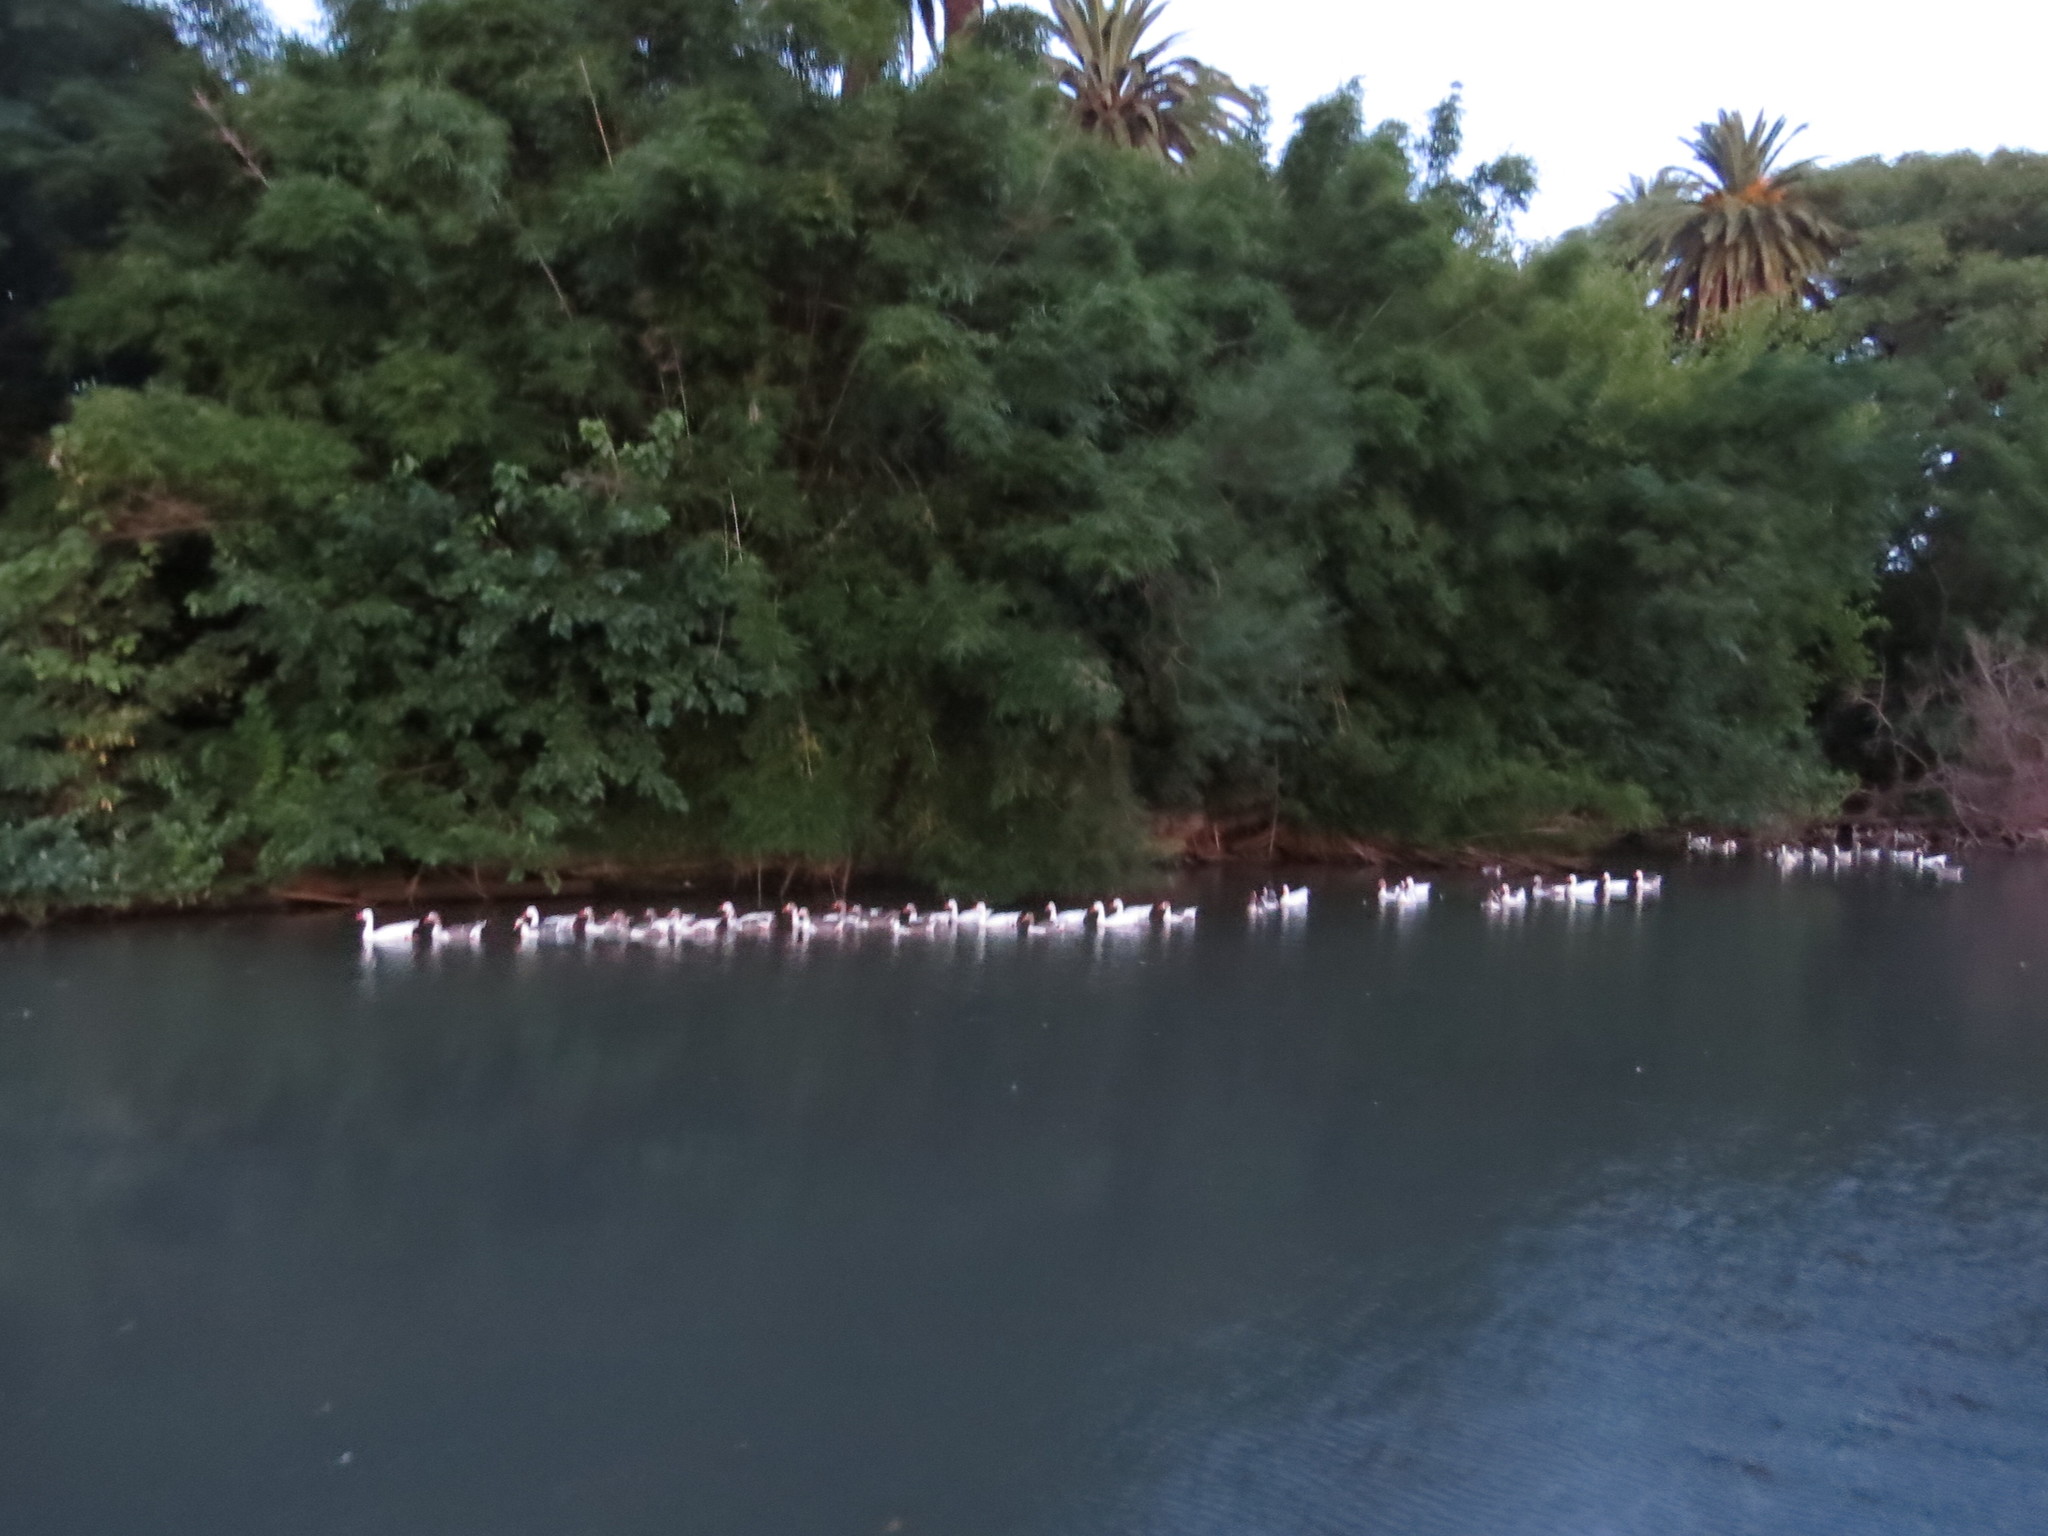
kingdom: Animalia
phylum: Chordata
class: Aves
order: Anseriformes
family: Anatidae
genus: Anser
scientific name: Anser anser
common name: Greylag goose
